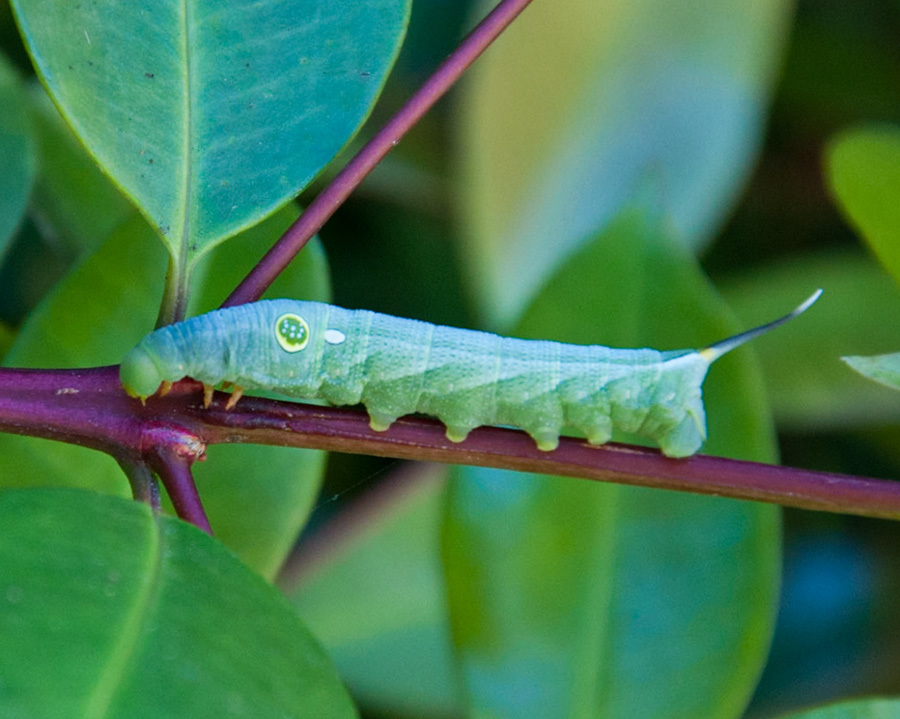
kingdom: Animalia
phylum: Arthropoda
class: Insecta
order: Lepidoptera
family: Sphingidae
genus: Hippotion
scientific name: Hippotion eson
